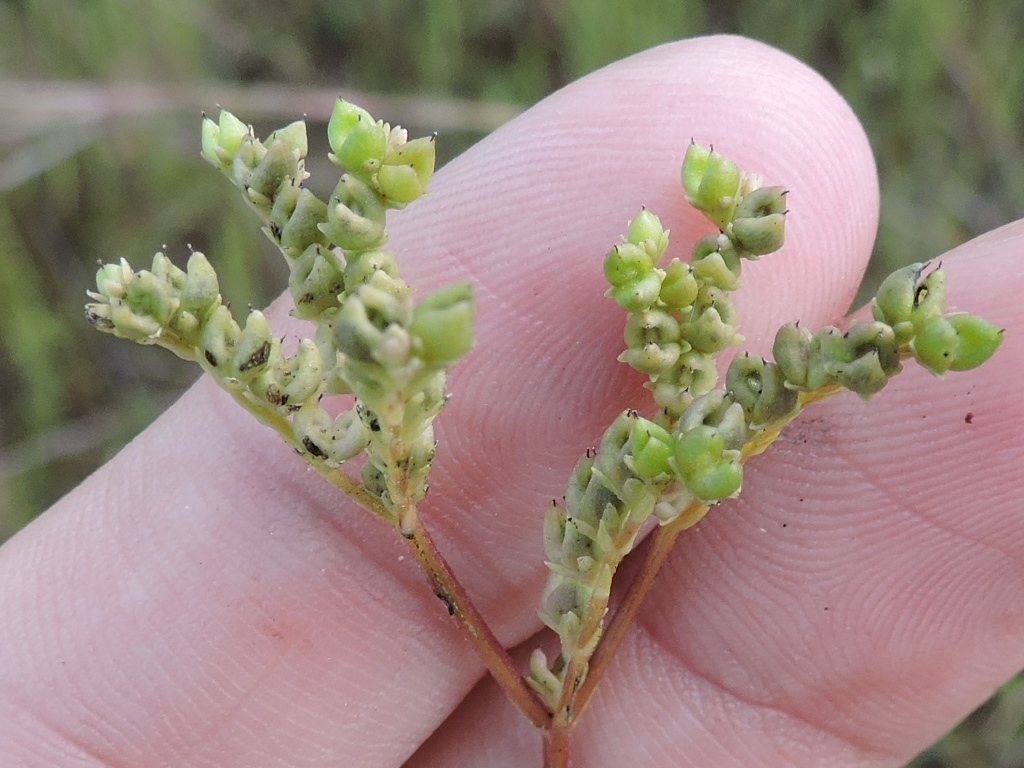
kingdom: Plantae
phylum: Tracheophyta
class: Magnoliopsida
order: Gentianales
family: Loganiaceae
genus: Mitreola
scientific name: Mitreola petiolata
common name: Lax hornpod
